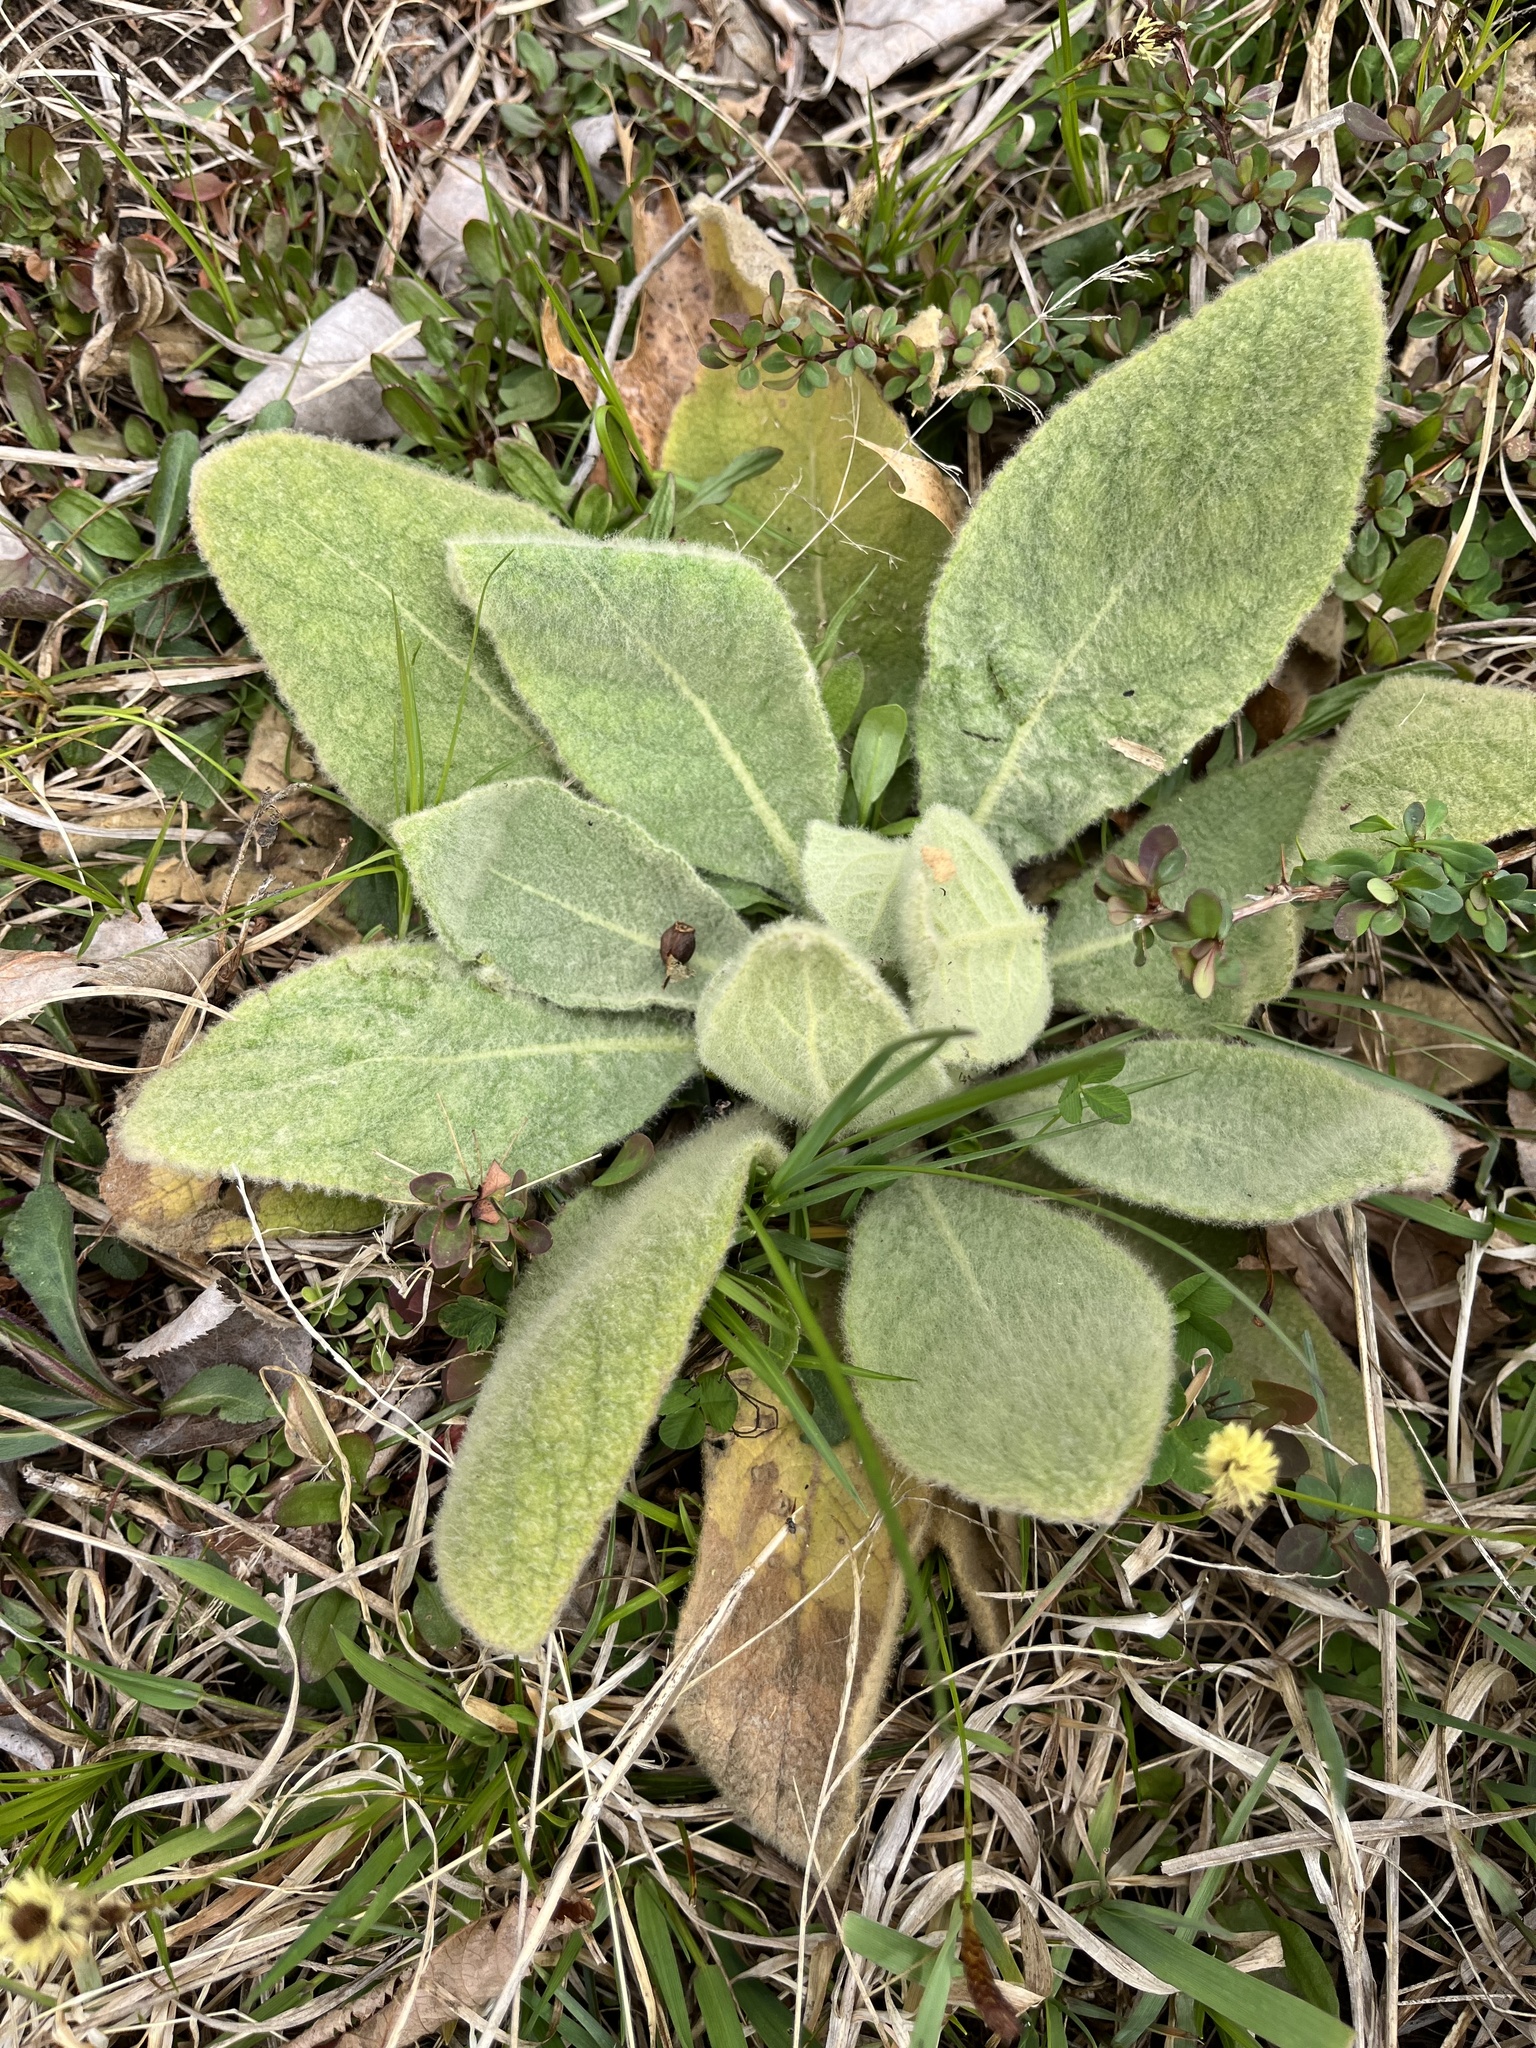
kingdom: Plantae
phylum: Tracheophyta
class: Magnoliopsida
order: Lamiales
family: Scrophulariaceae
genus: Verbascum
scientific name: Verbascum thapsus
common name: Common mullein
